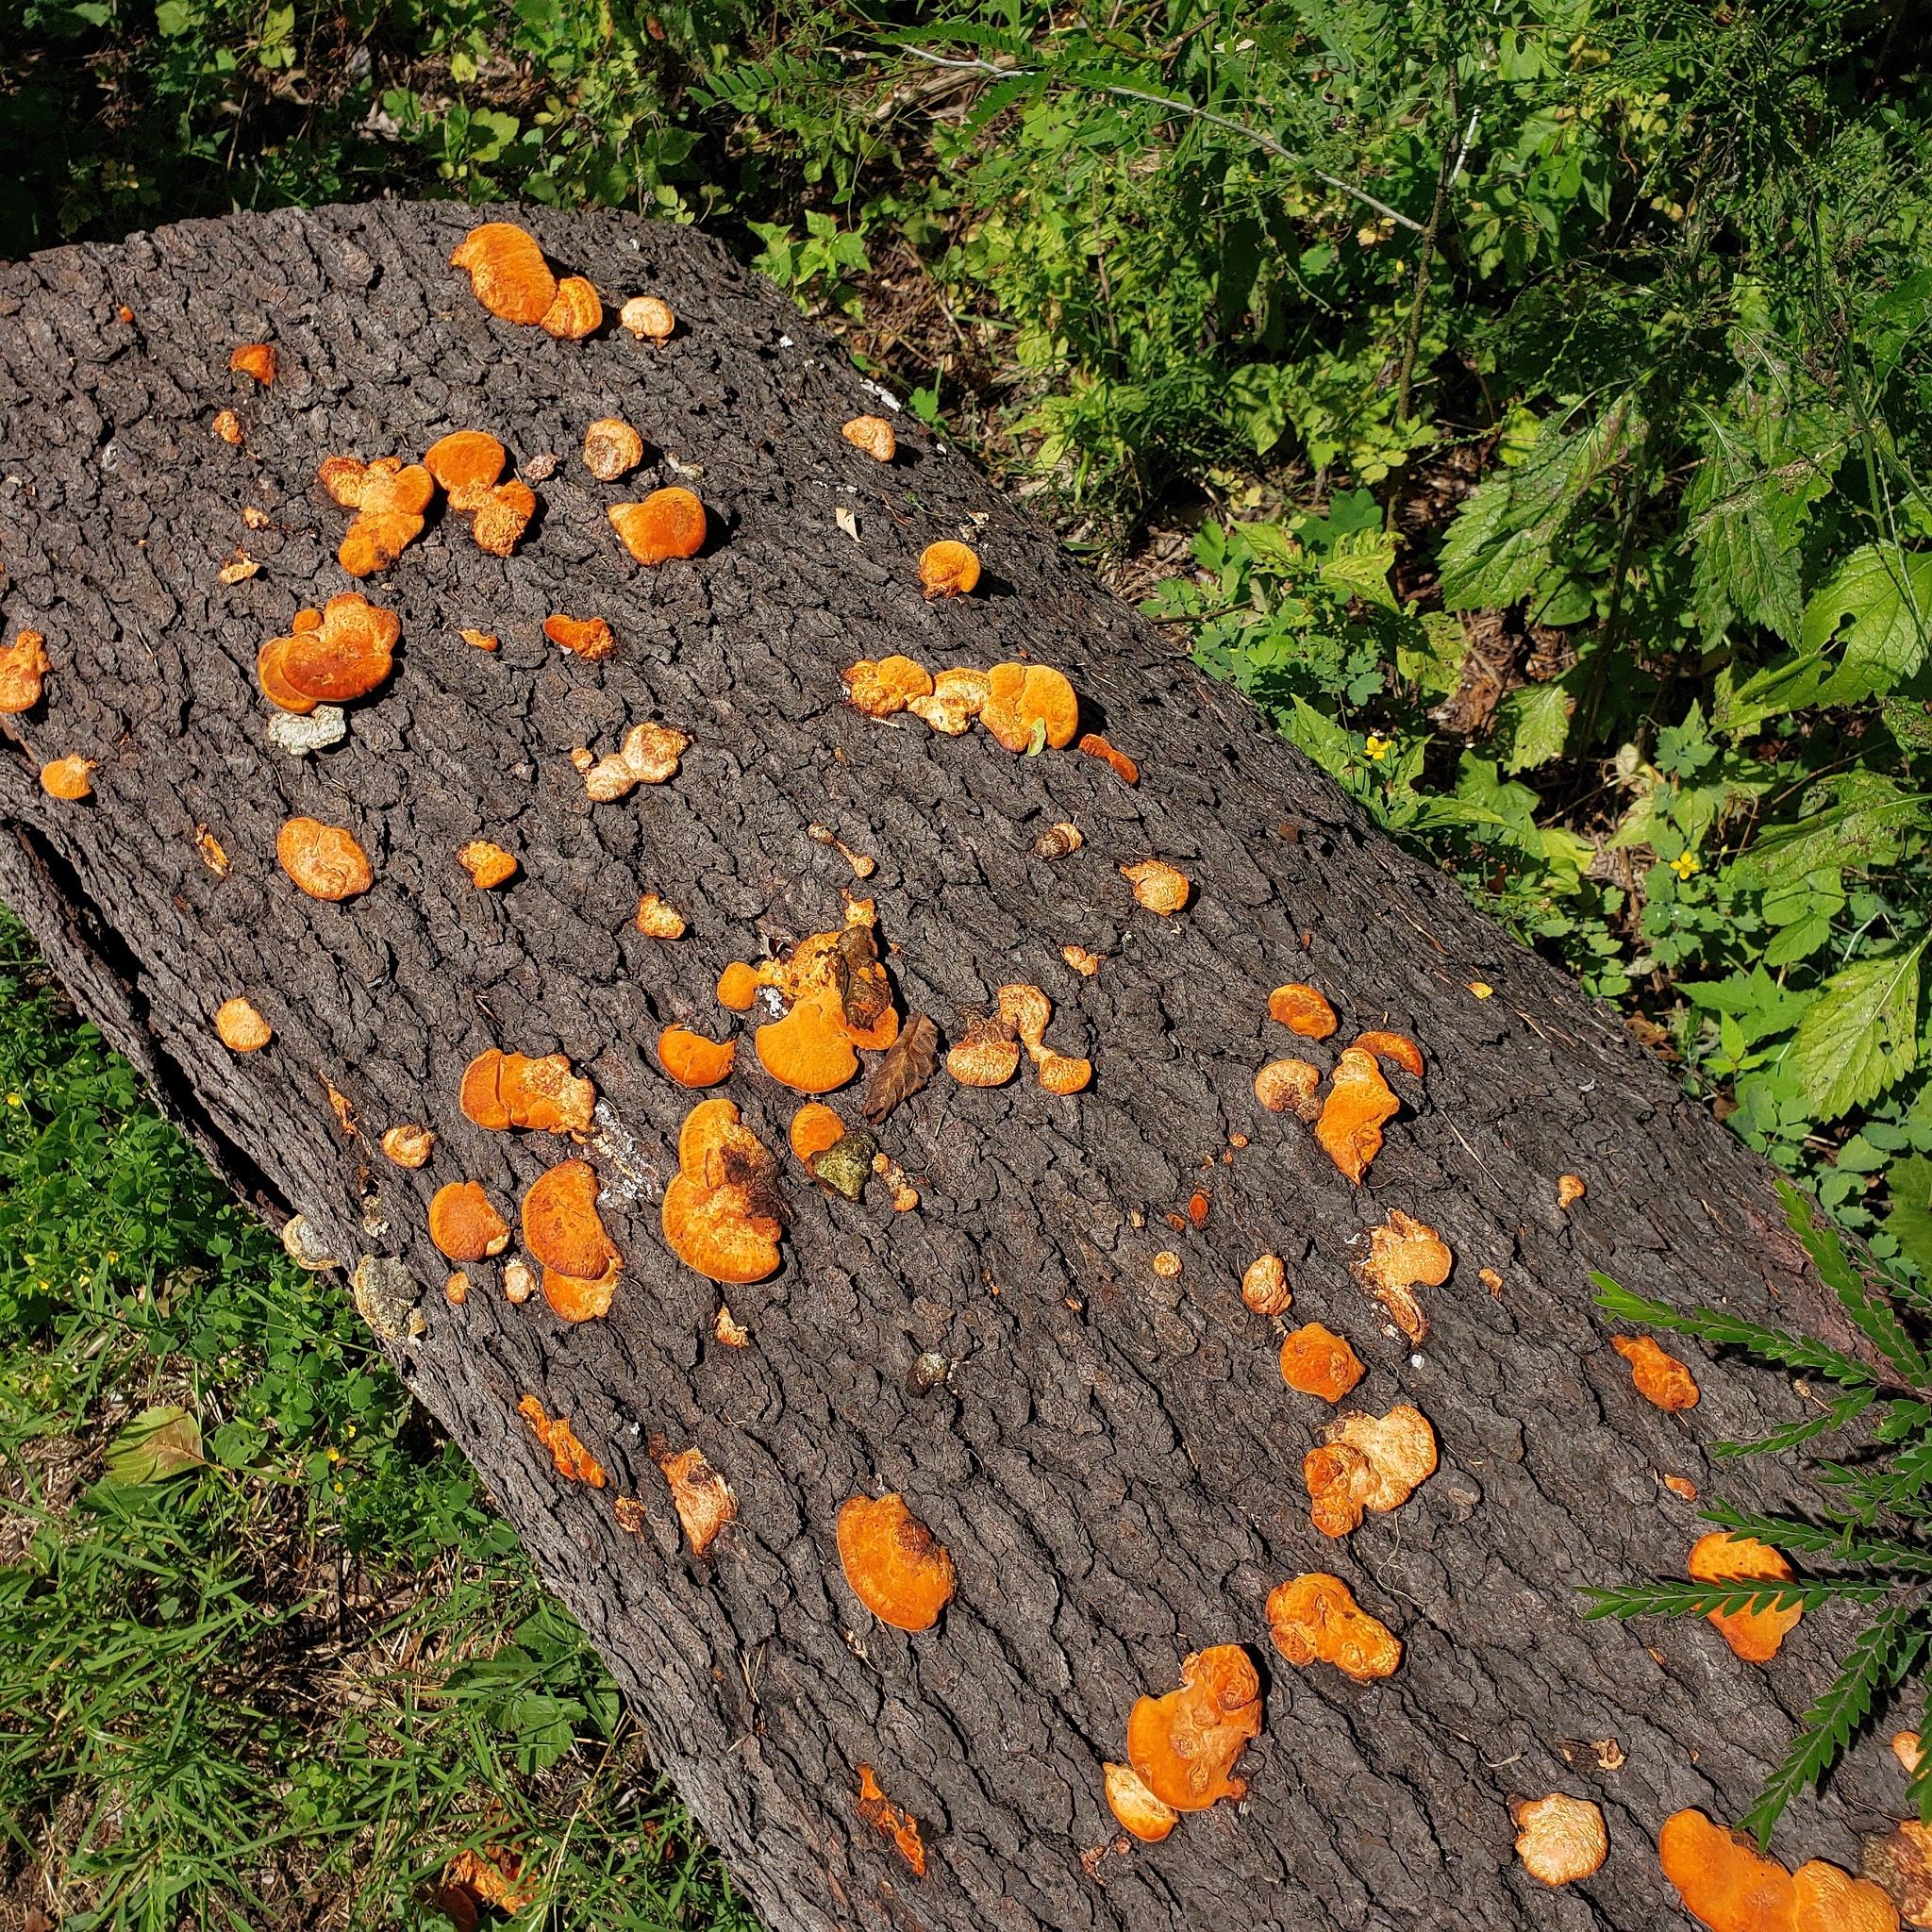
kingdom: Fungi
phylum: Basidiomycota
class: Agaricomycetes
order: Polyporales
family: Polyporaceae
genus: Trametes
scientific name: Trametes cinnabarina
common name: Northern cinnabar polypore
